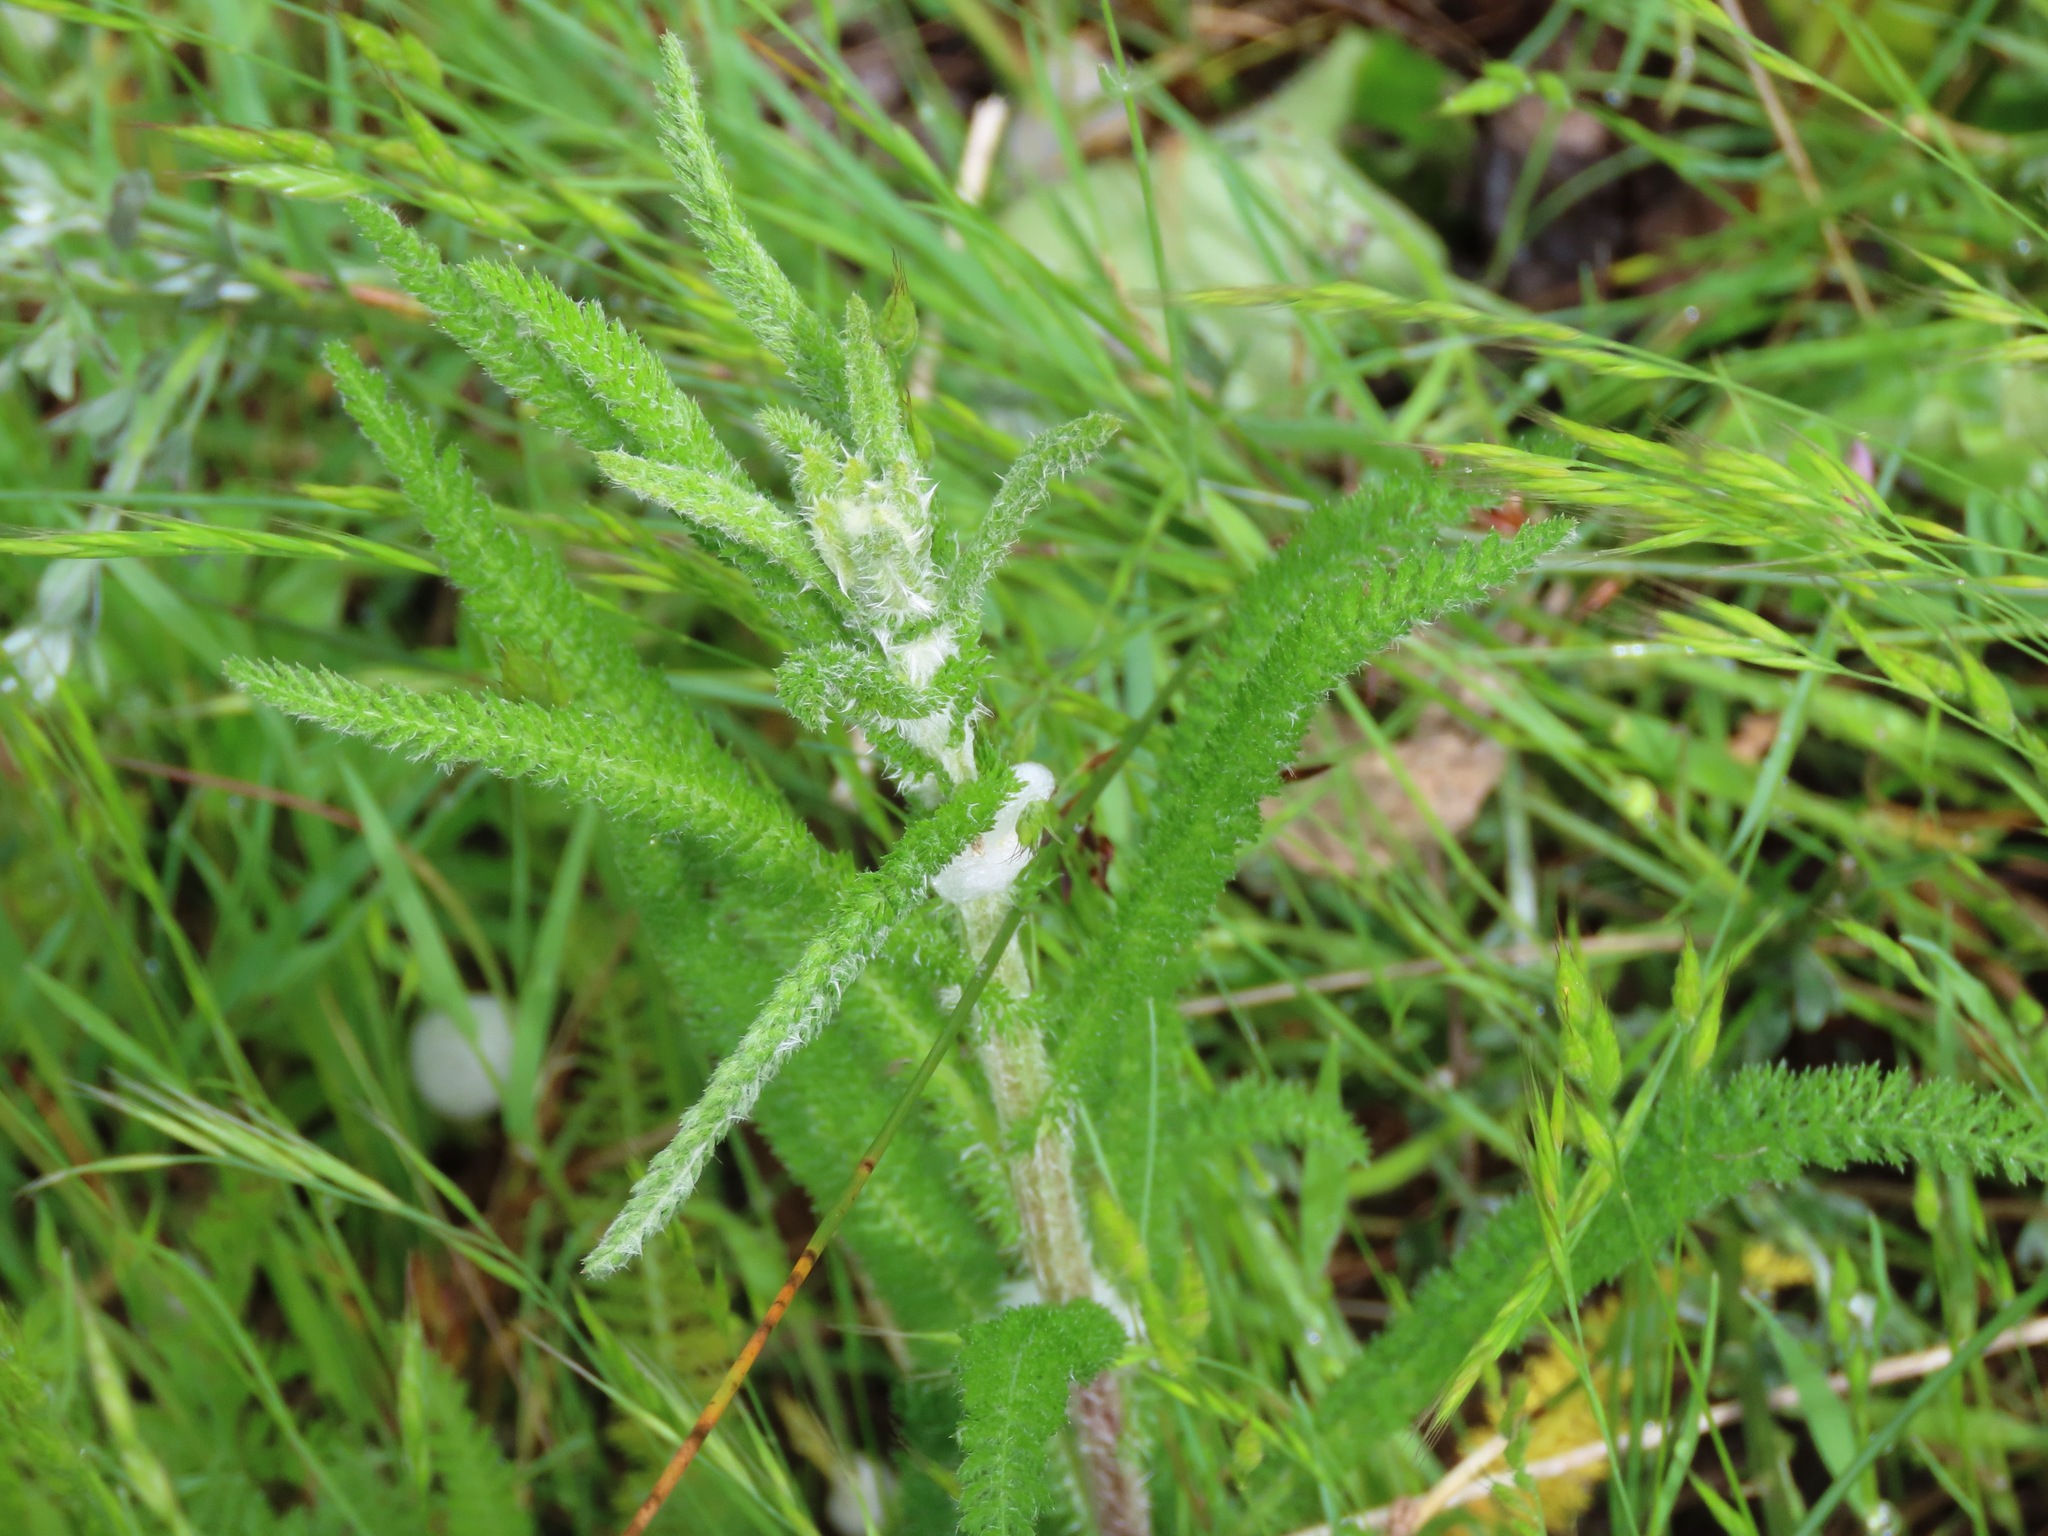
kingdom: Plantae
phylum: Tracheophyta
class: Magnoliopsida
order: Asterales
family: Asteraceae
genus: Achillea
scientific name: Achillea millefolium
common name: Yarrow
